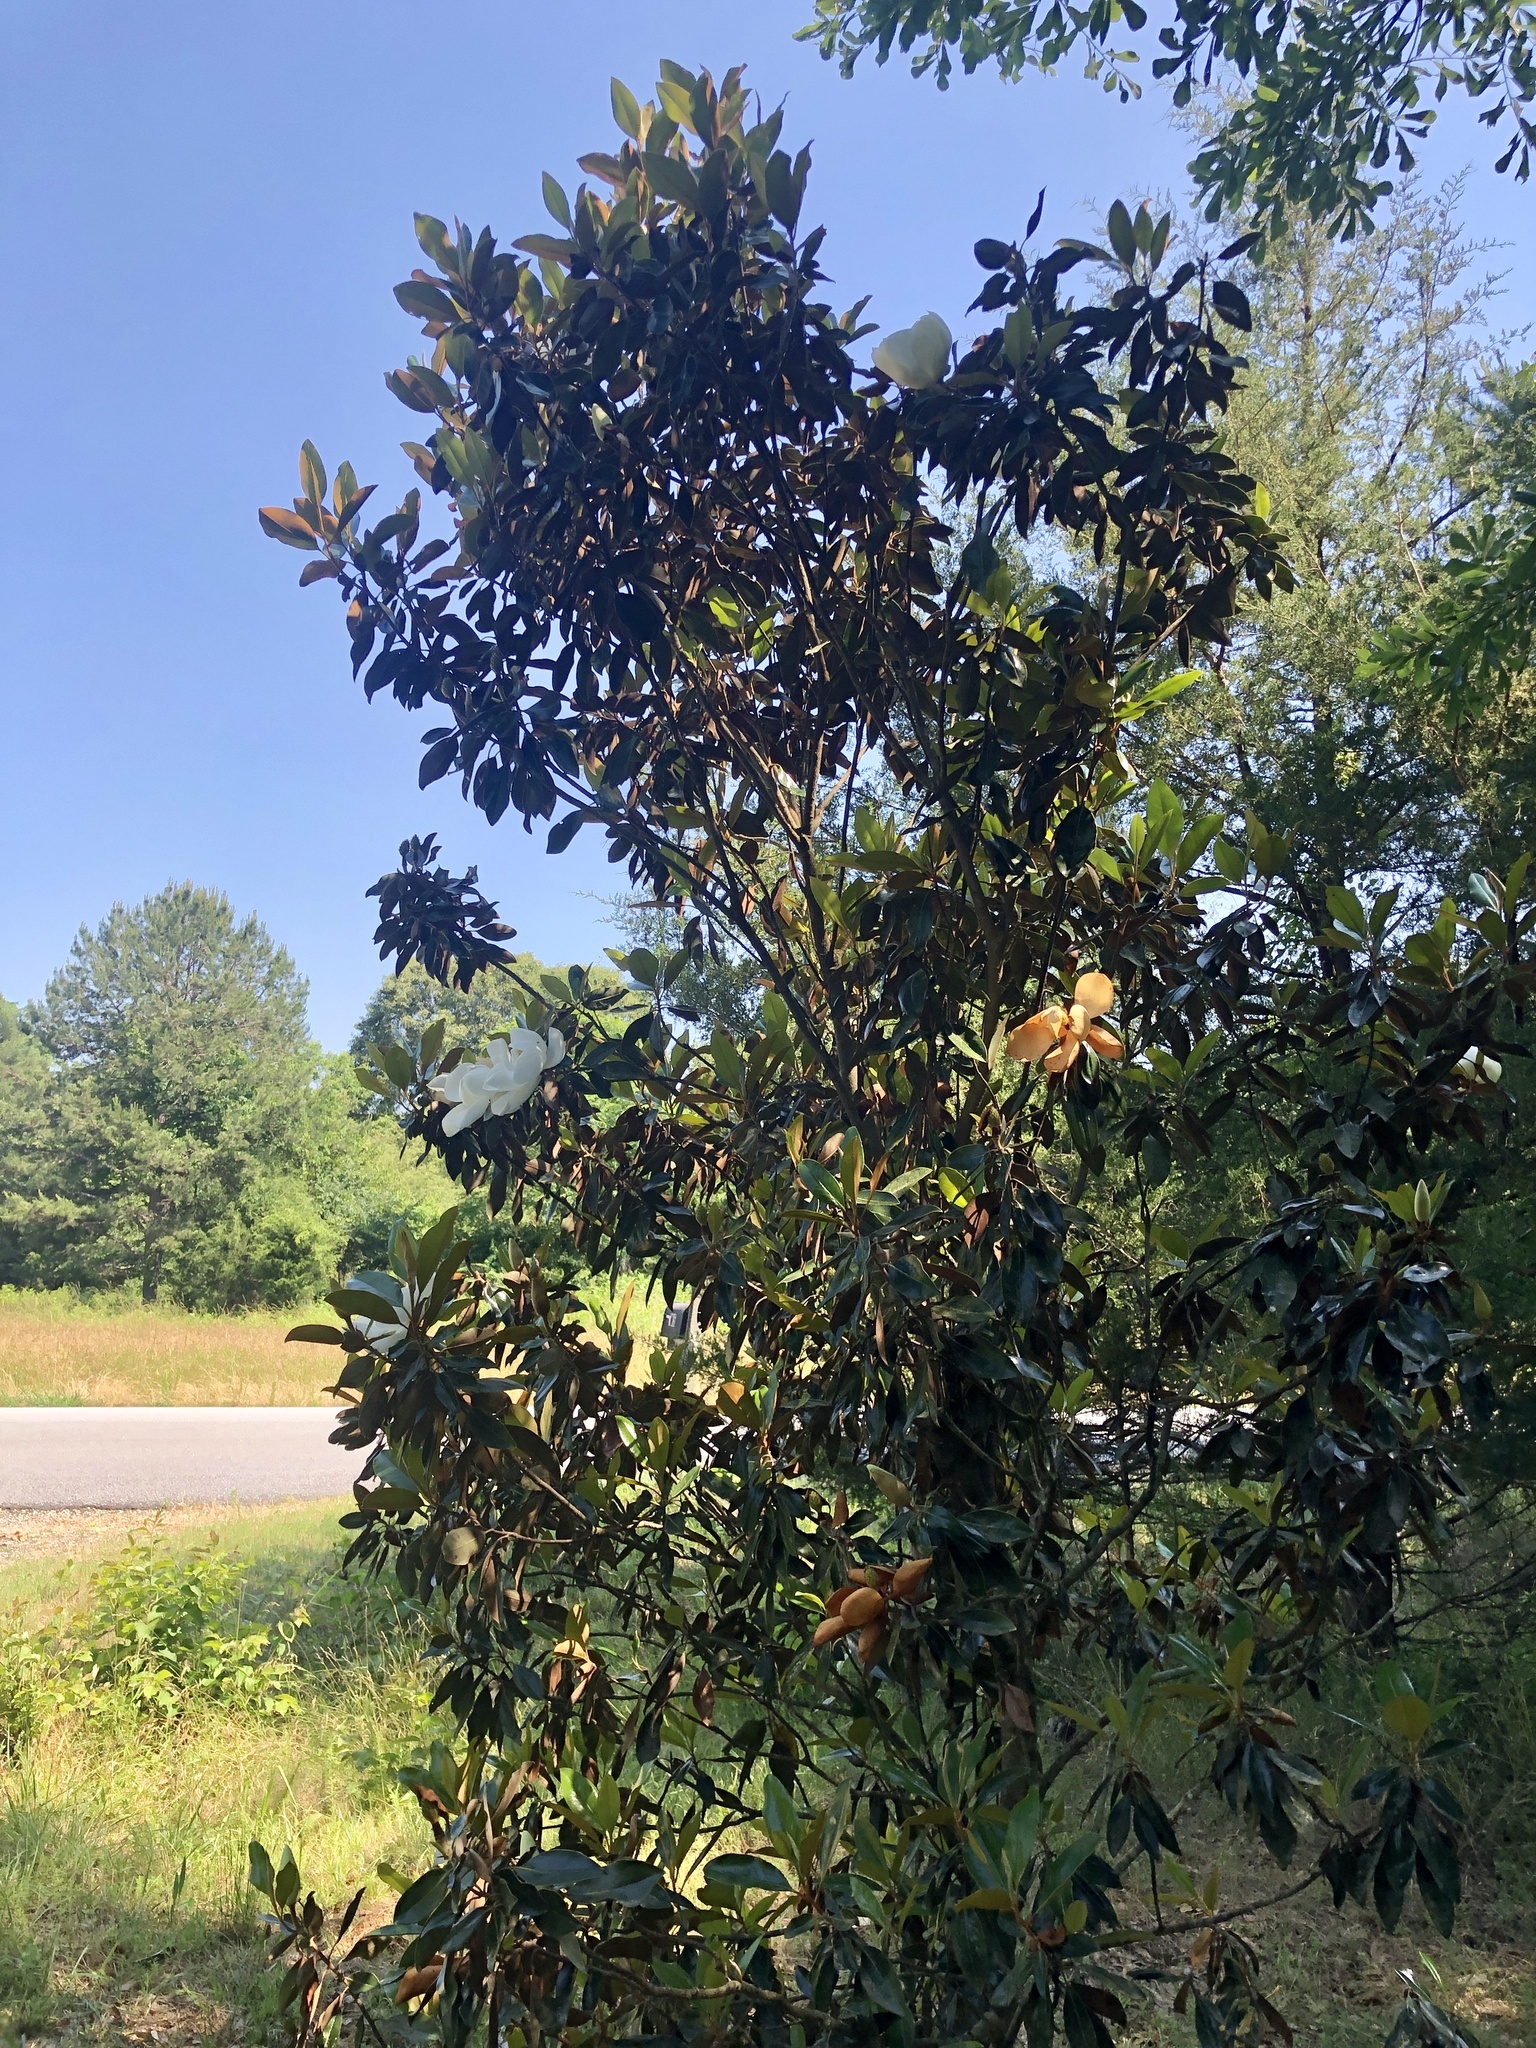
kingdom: Plantae
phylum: Tracheophyta
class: Magnoliopsida
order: Magnoliales
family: Magnoliaceae
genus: Magnolia
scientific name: Magnolia grandiflora
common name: Southern magnolia
